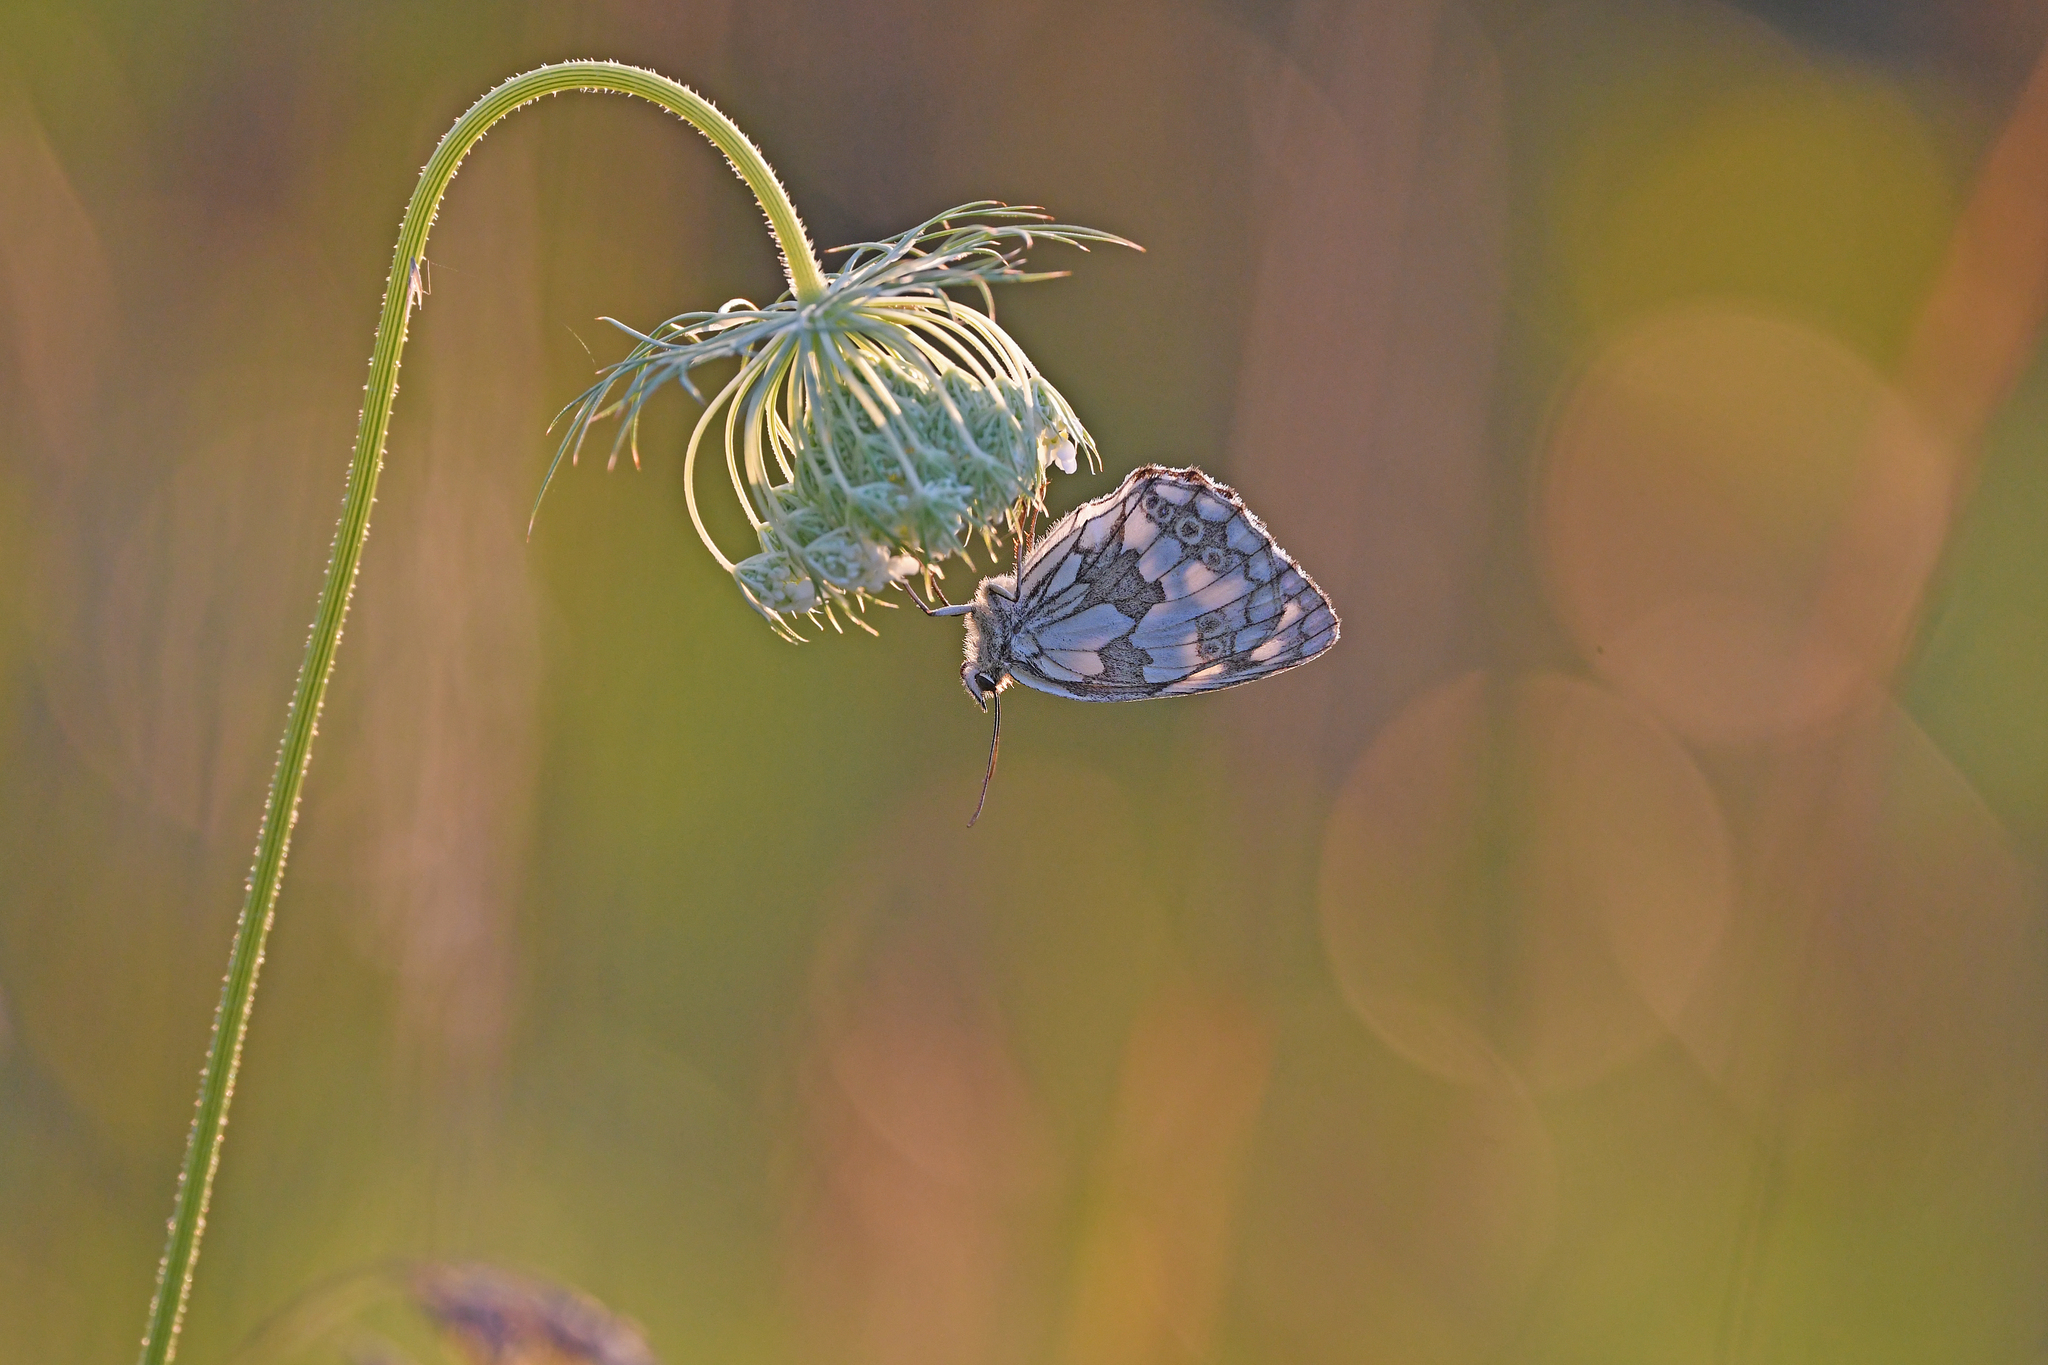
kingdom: Animalia
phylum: Arthropoda
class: Insecta
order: Lepidoptera
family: Nymphalidae
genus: Melanargia
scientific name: Melanargia galathea
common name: Marbled white
